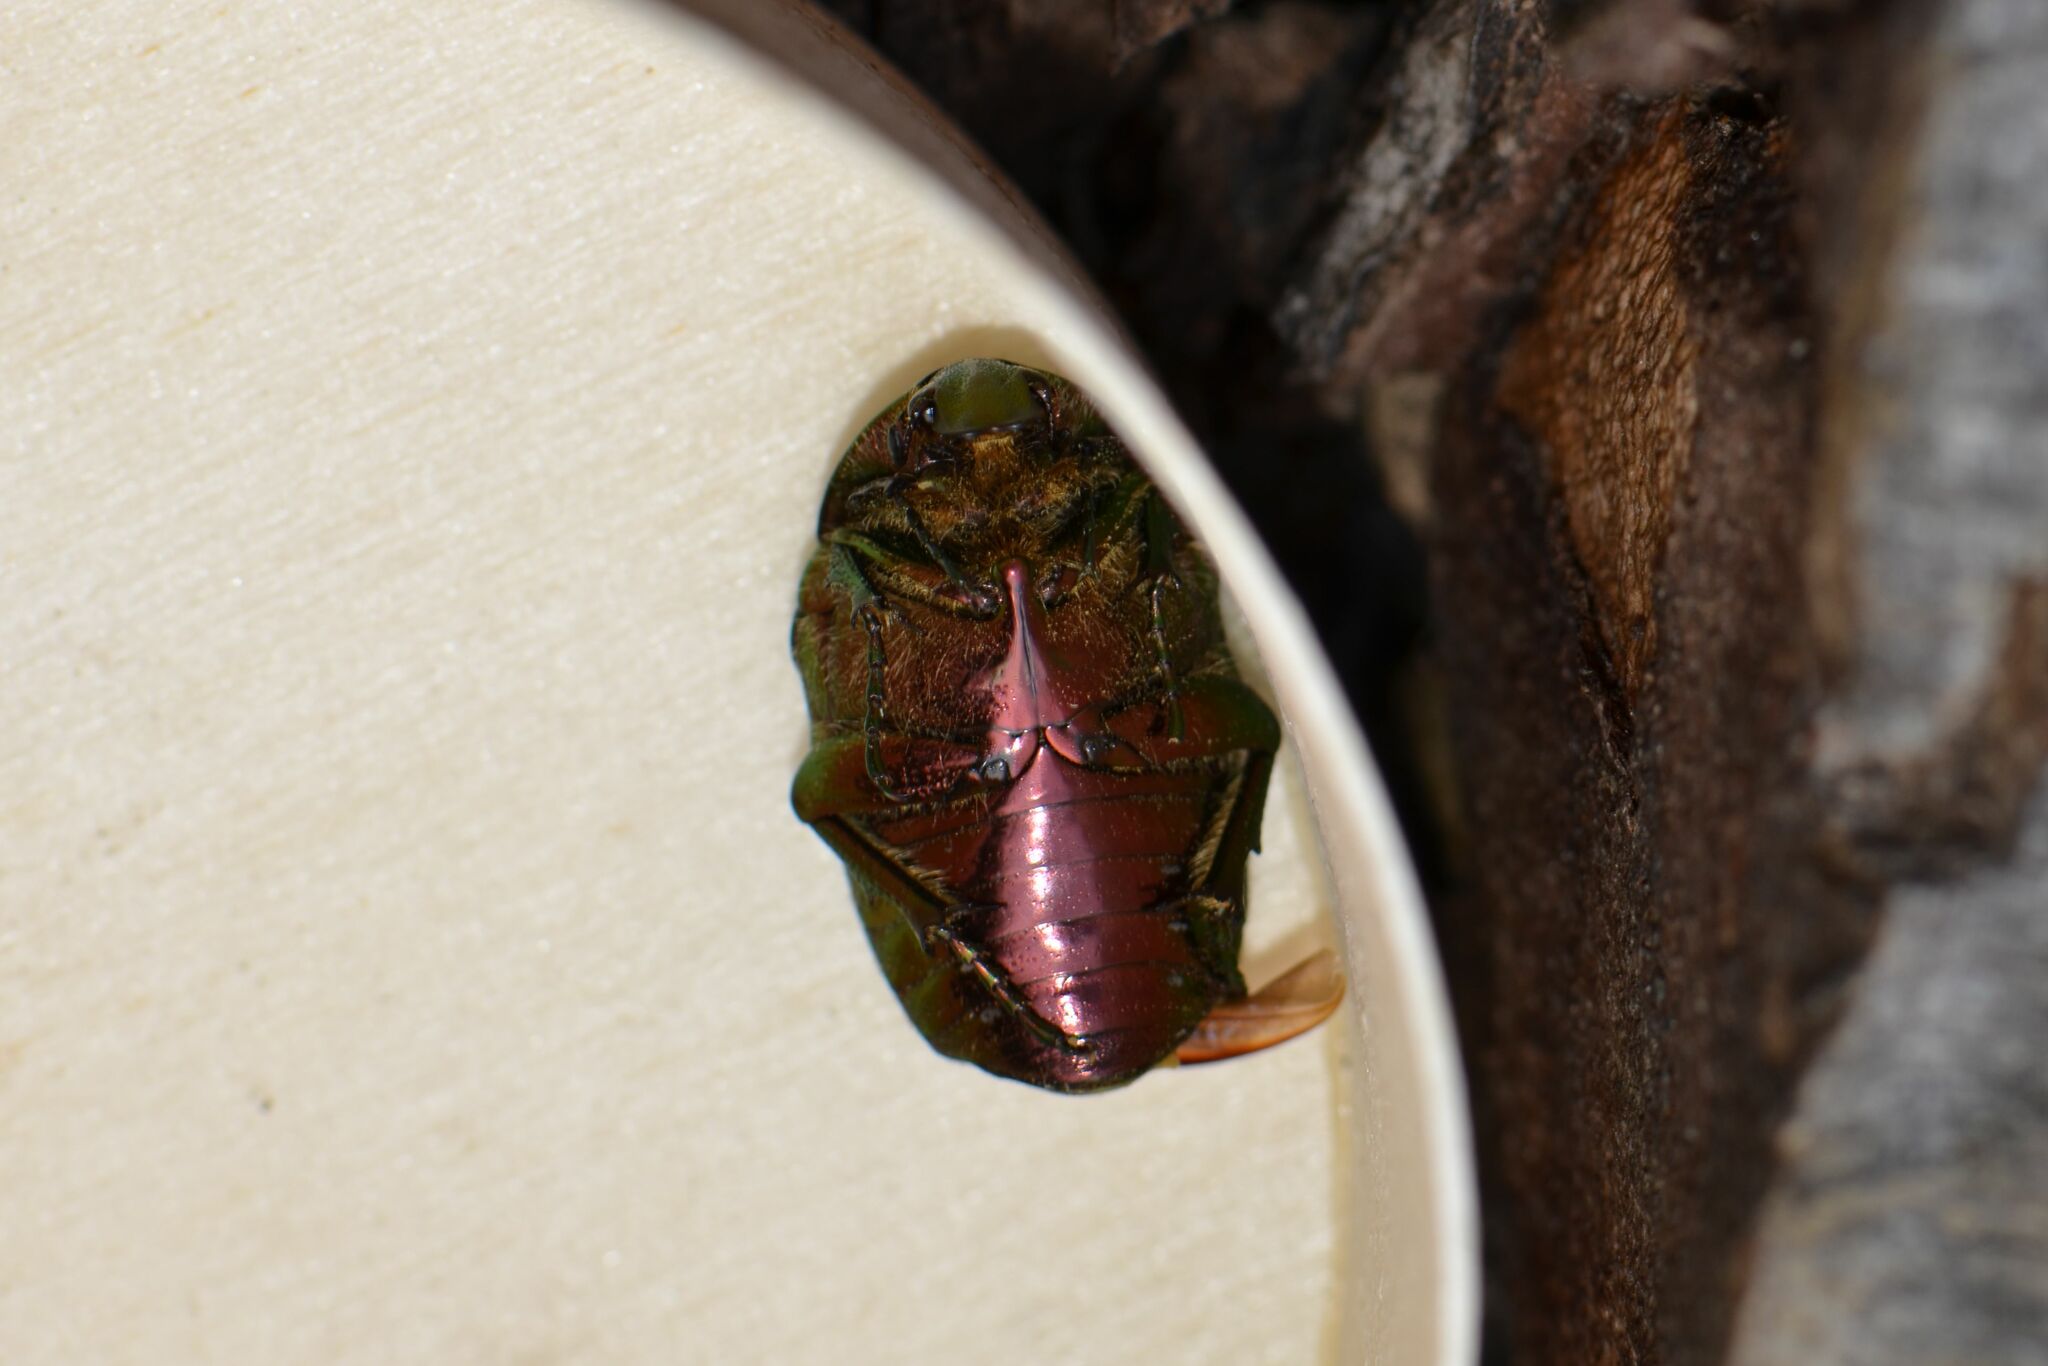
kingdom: Animalia
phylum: Arthropoda
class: Insecta
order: Coleoptera
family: Scarabaeidae
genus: Cetonia
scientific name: Cetonia aurata
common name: Rose chafer
